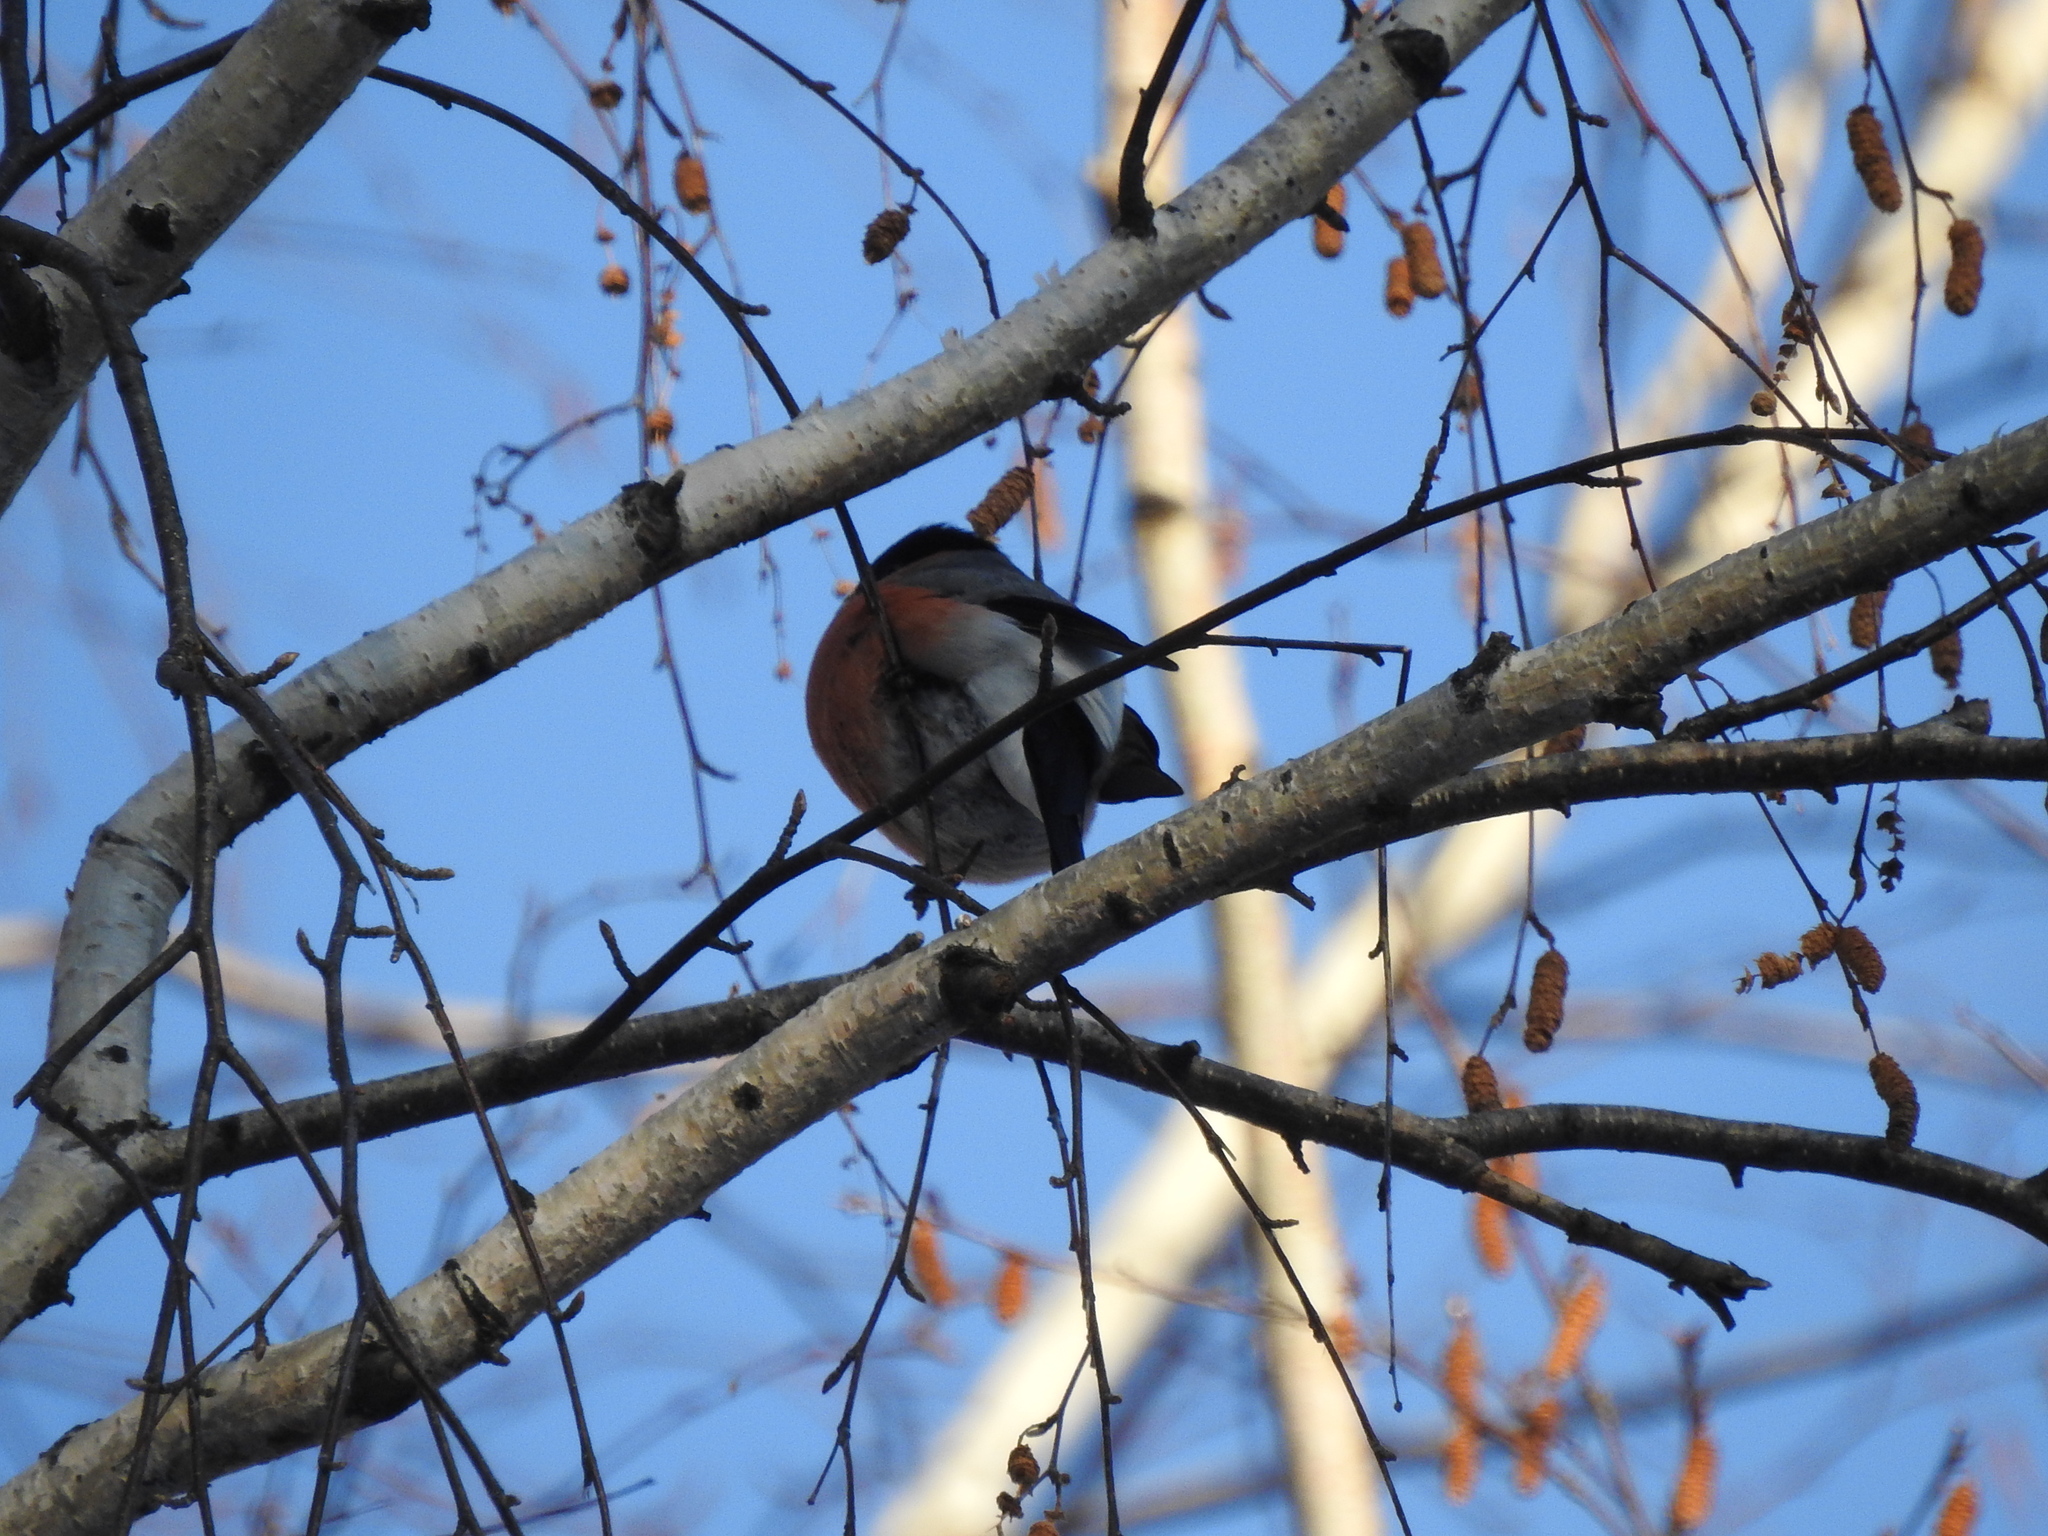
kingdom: Animalia
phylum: Chordata
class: Aves
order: Passeriformes
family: Fringillidae
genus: Pyrrhula
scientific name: Pyrrhula pyrrhula
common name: Eurasian bullfinch
